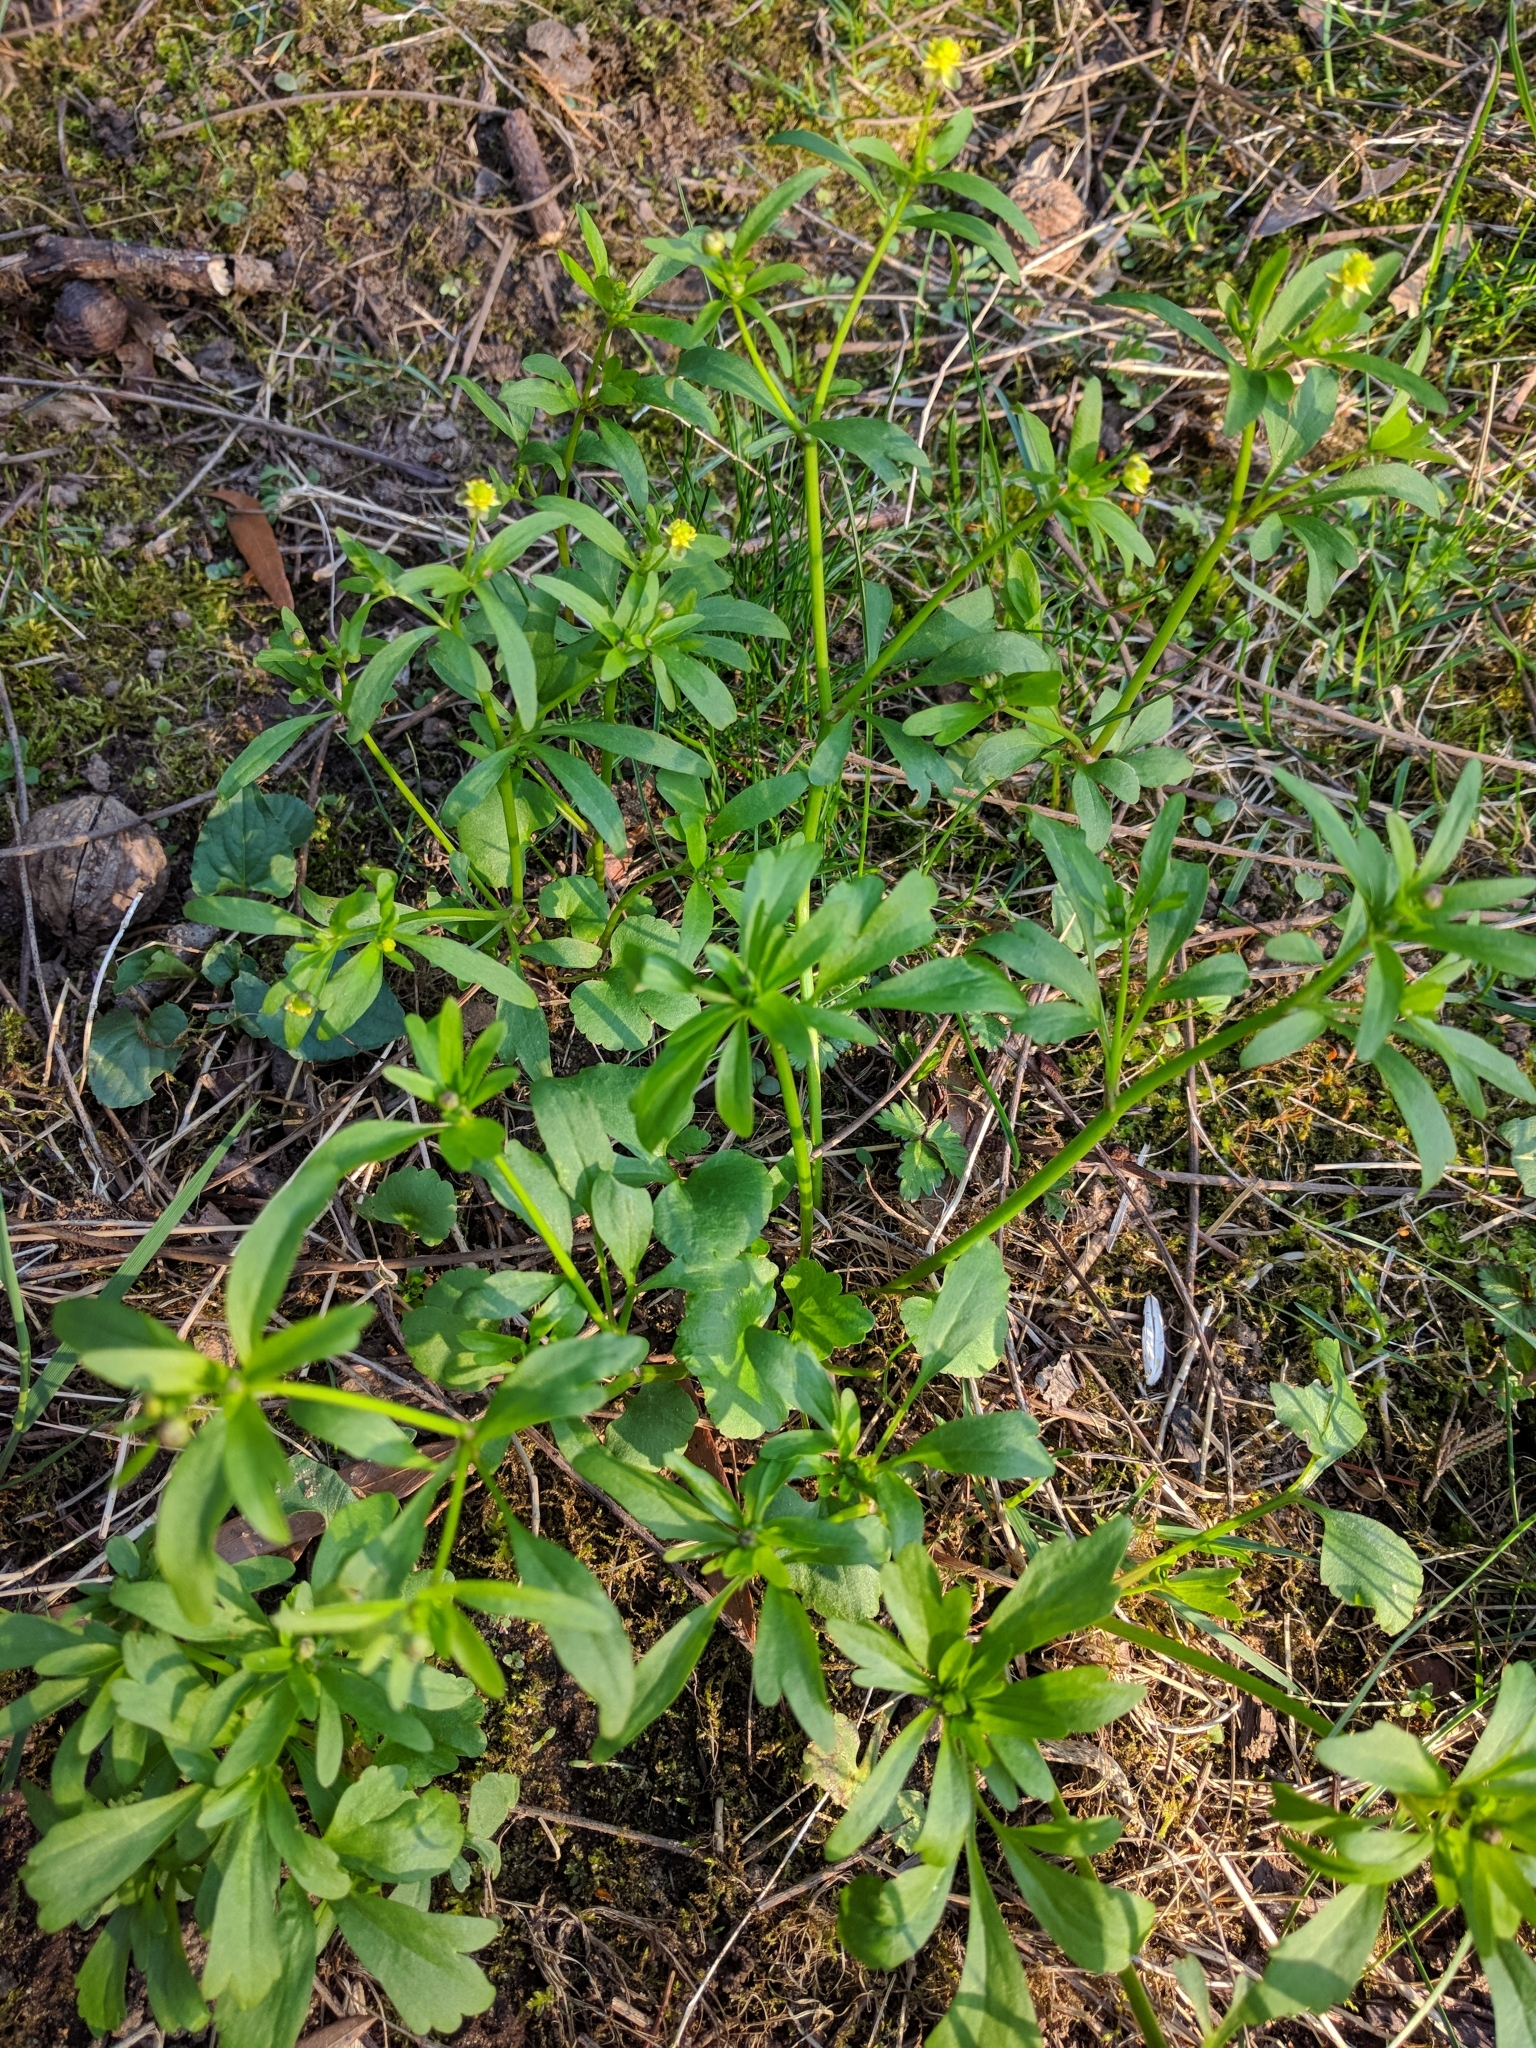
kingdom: Plantae
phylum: Tracheophyta
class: Magnoliopsida
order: Ranunculales
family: Ranunculaceae
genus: Ranunculus
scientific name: Ranunculus abortivus
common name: Early wood buttercup
